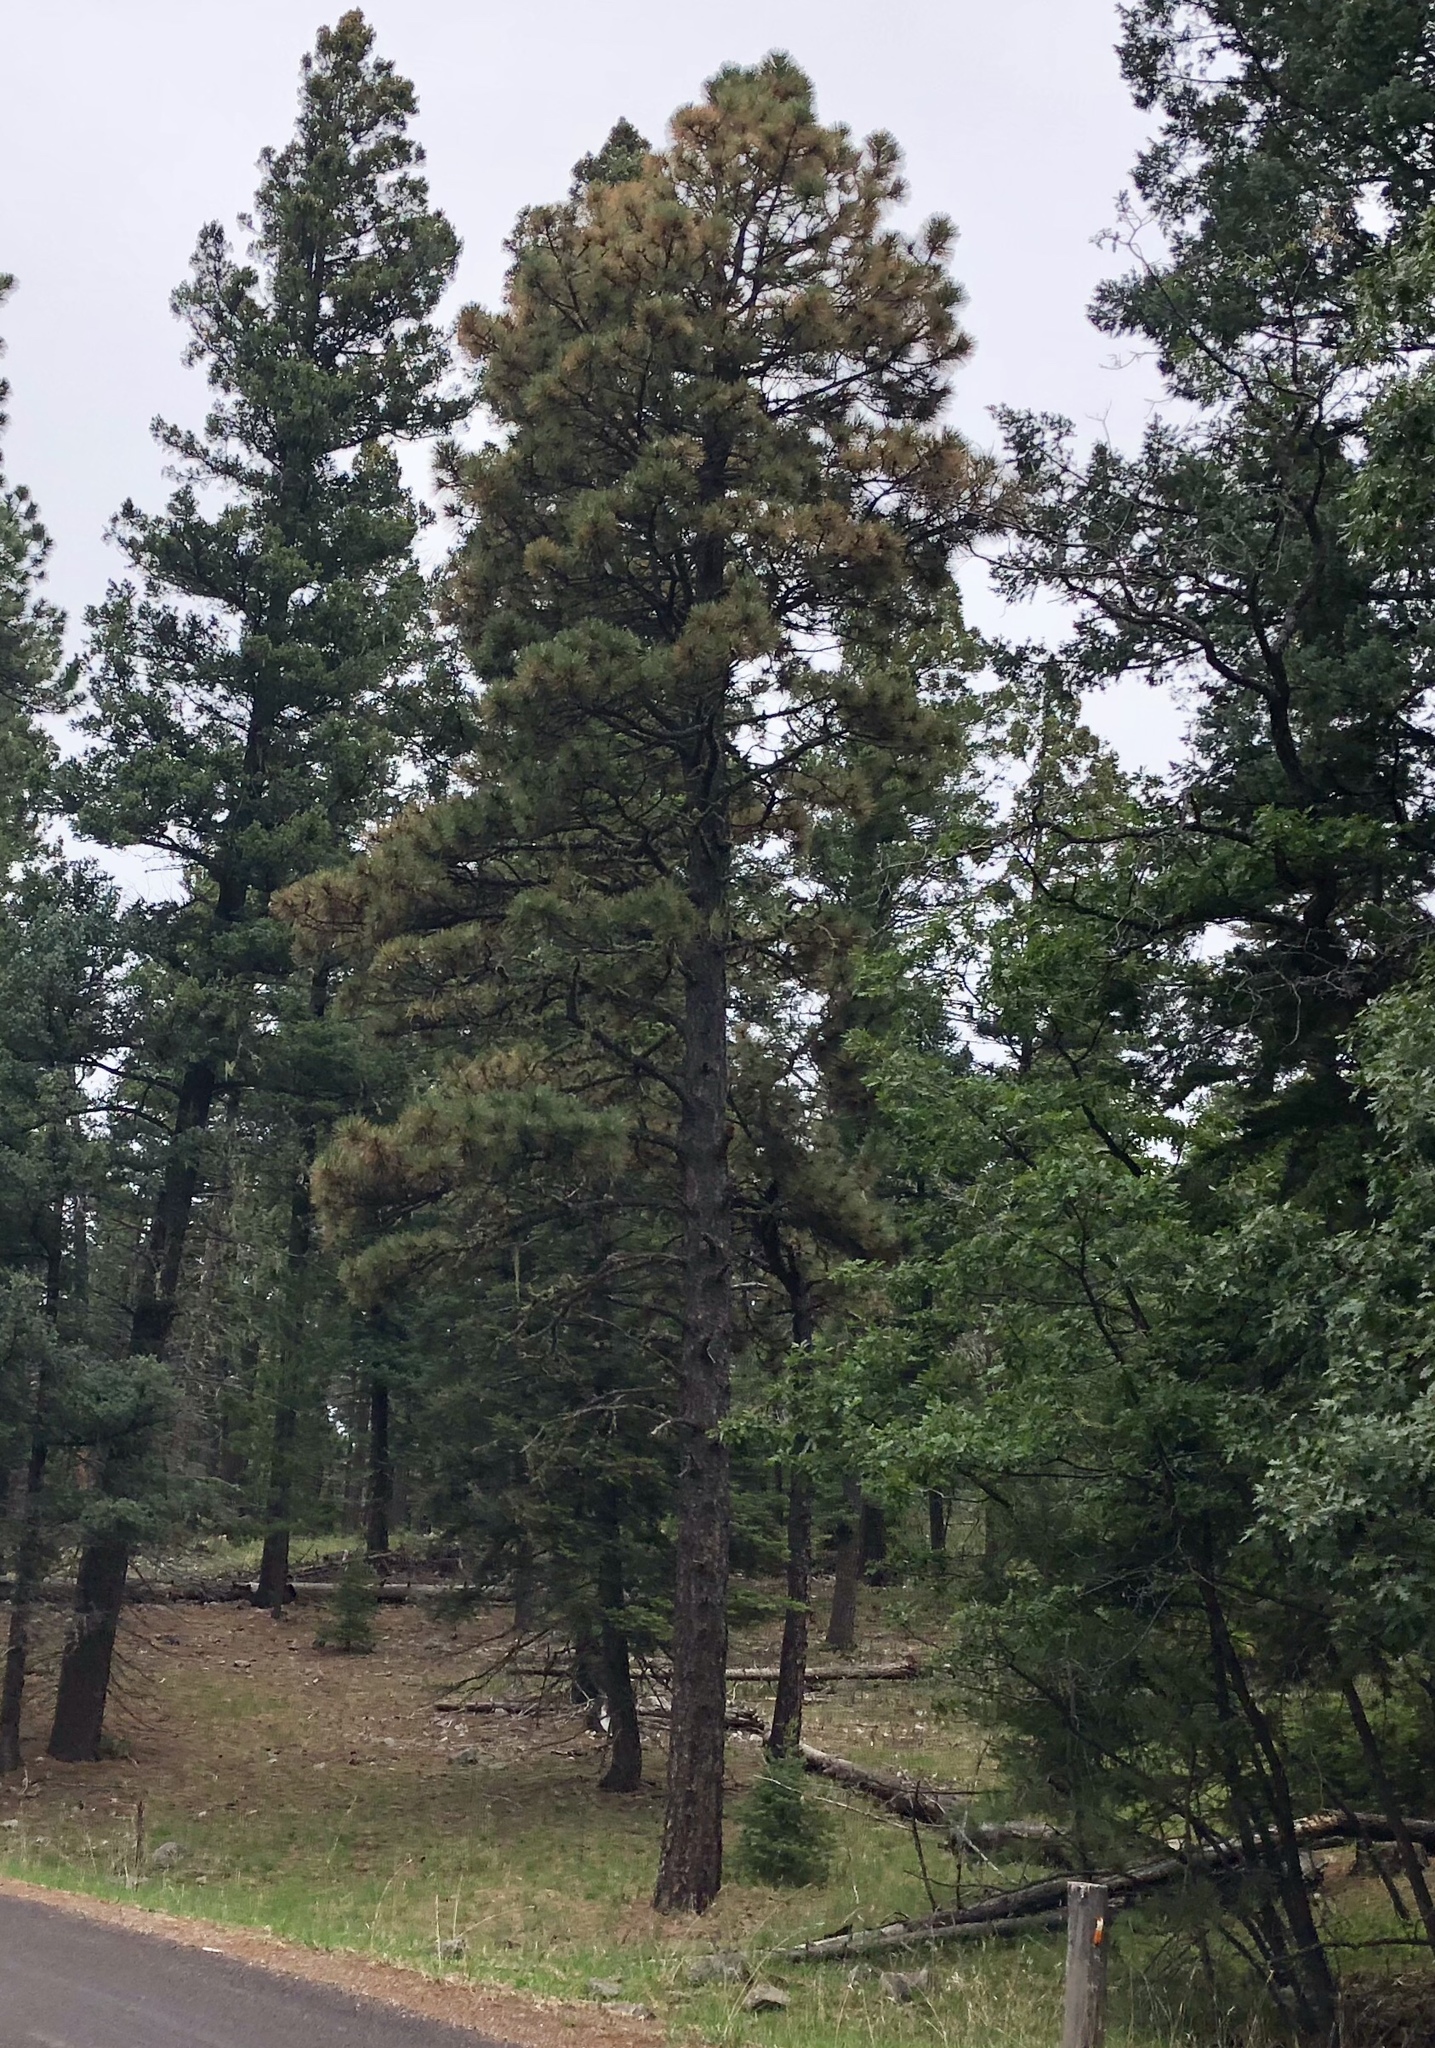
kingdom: Plantae
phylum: Tracheophyta
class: Pinopsida
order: Pinales
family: Pinaceae
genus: Pinus
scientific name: Pinus ponderosa
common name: Western yellow-pine
